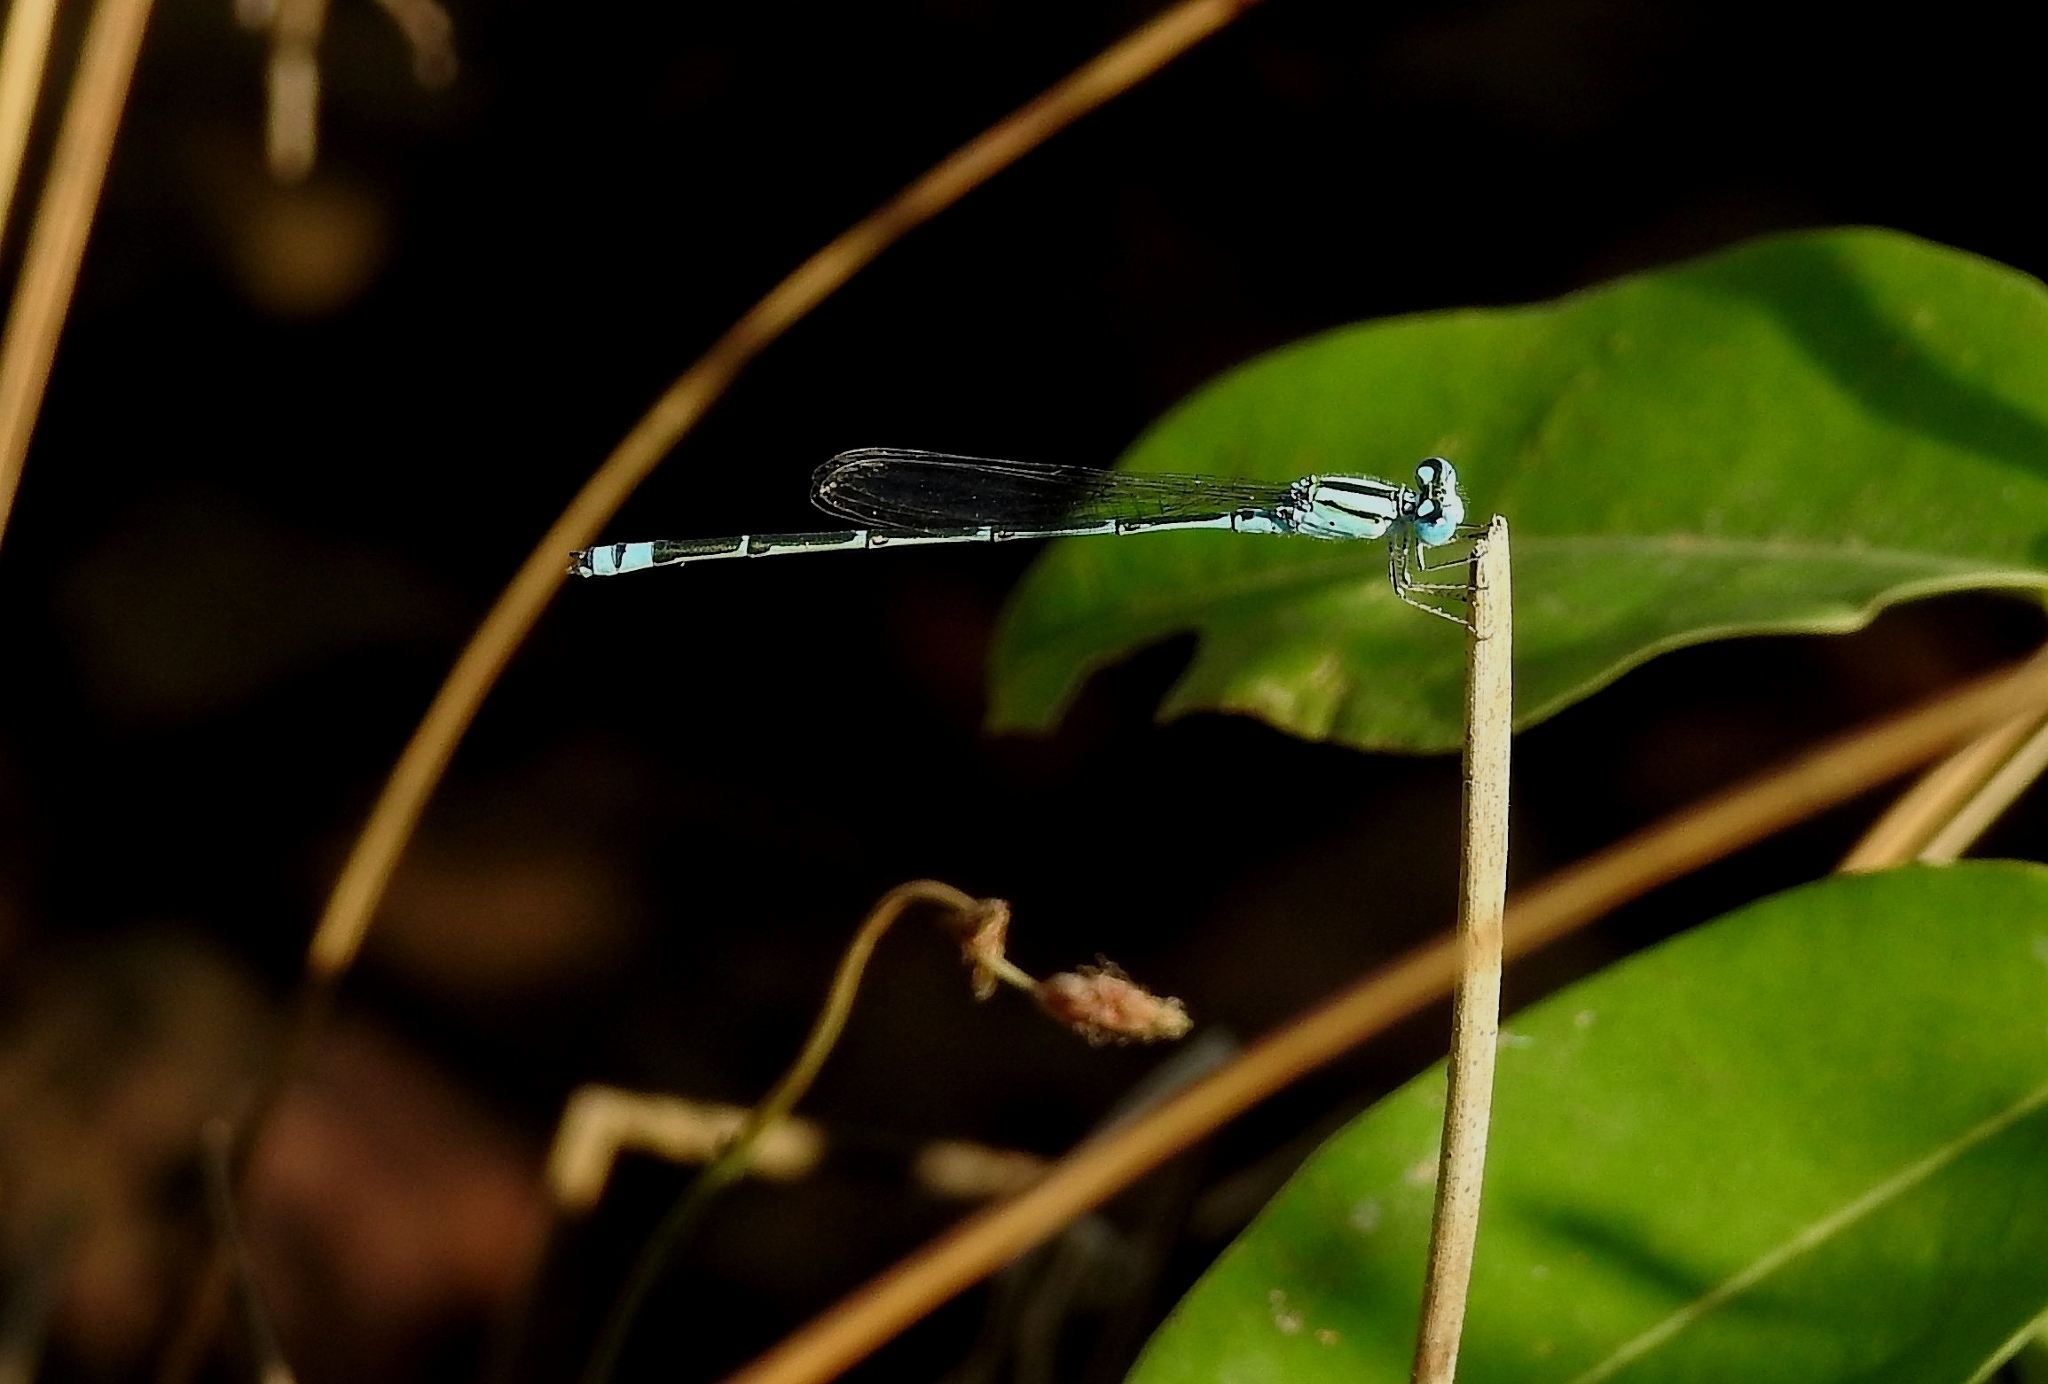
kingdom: Animalia
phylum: Arthropoda
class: Insecta
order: Odonata
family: Coenagrionidae
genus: Pseudagrion
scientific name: Pseudagrion microcephalum
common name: Blue riverdamsel
